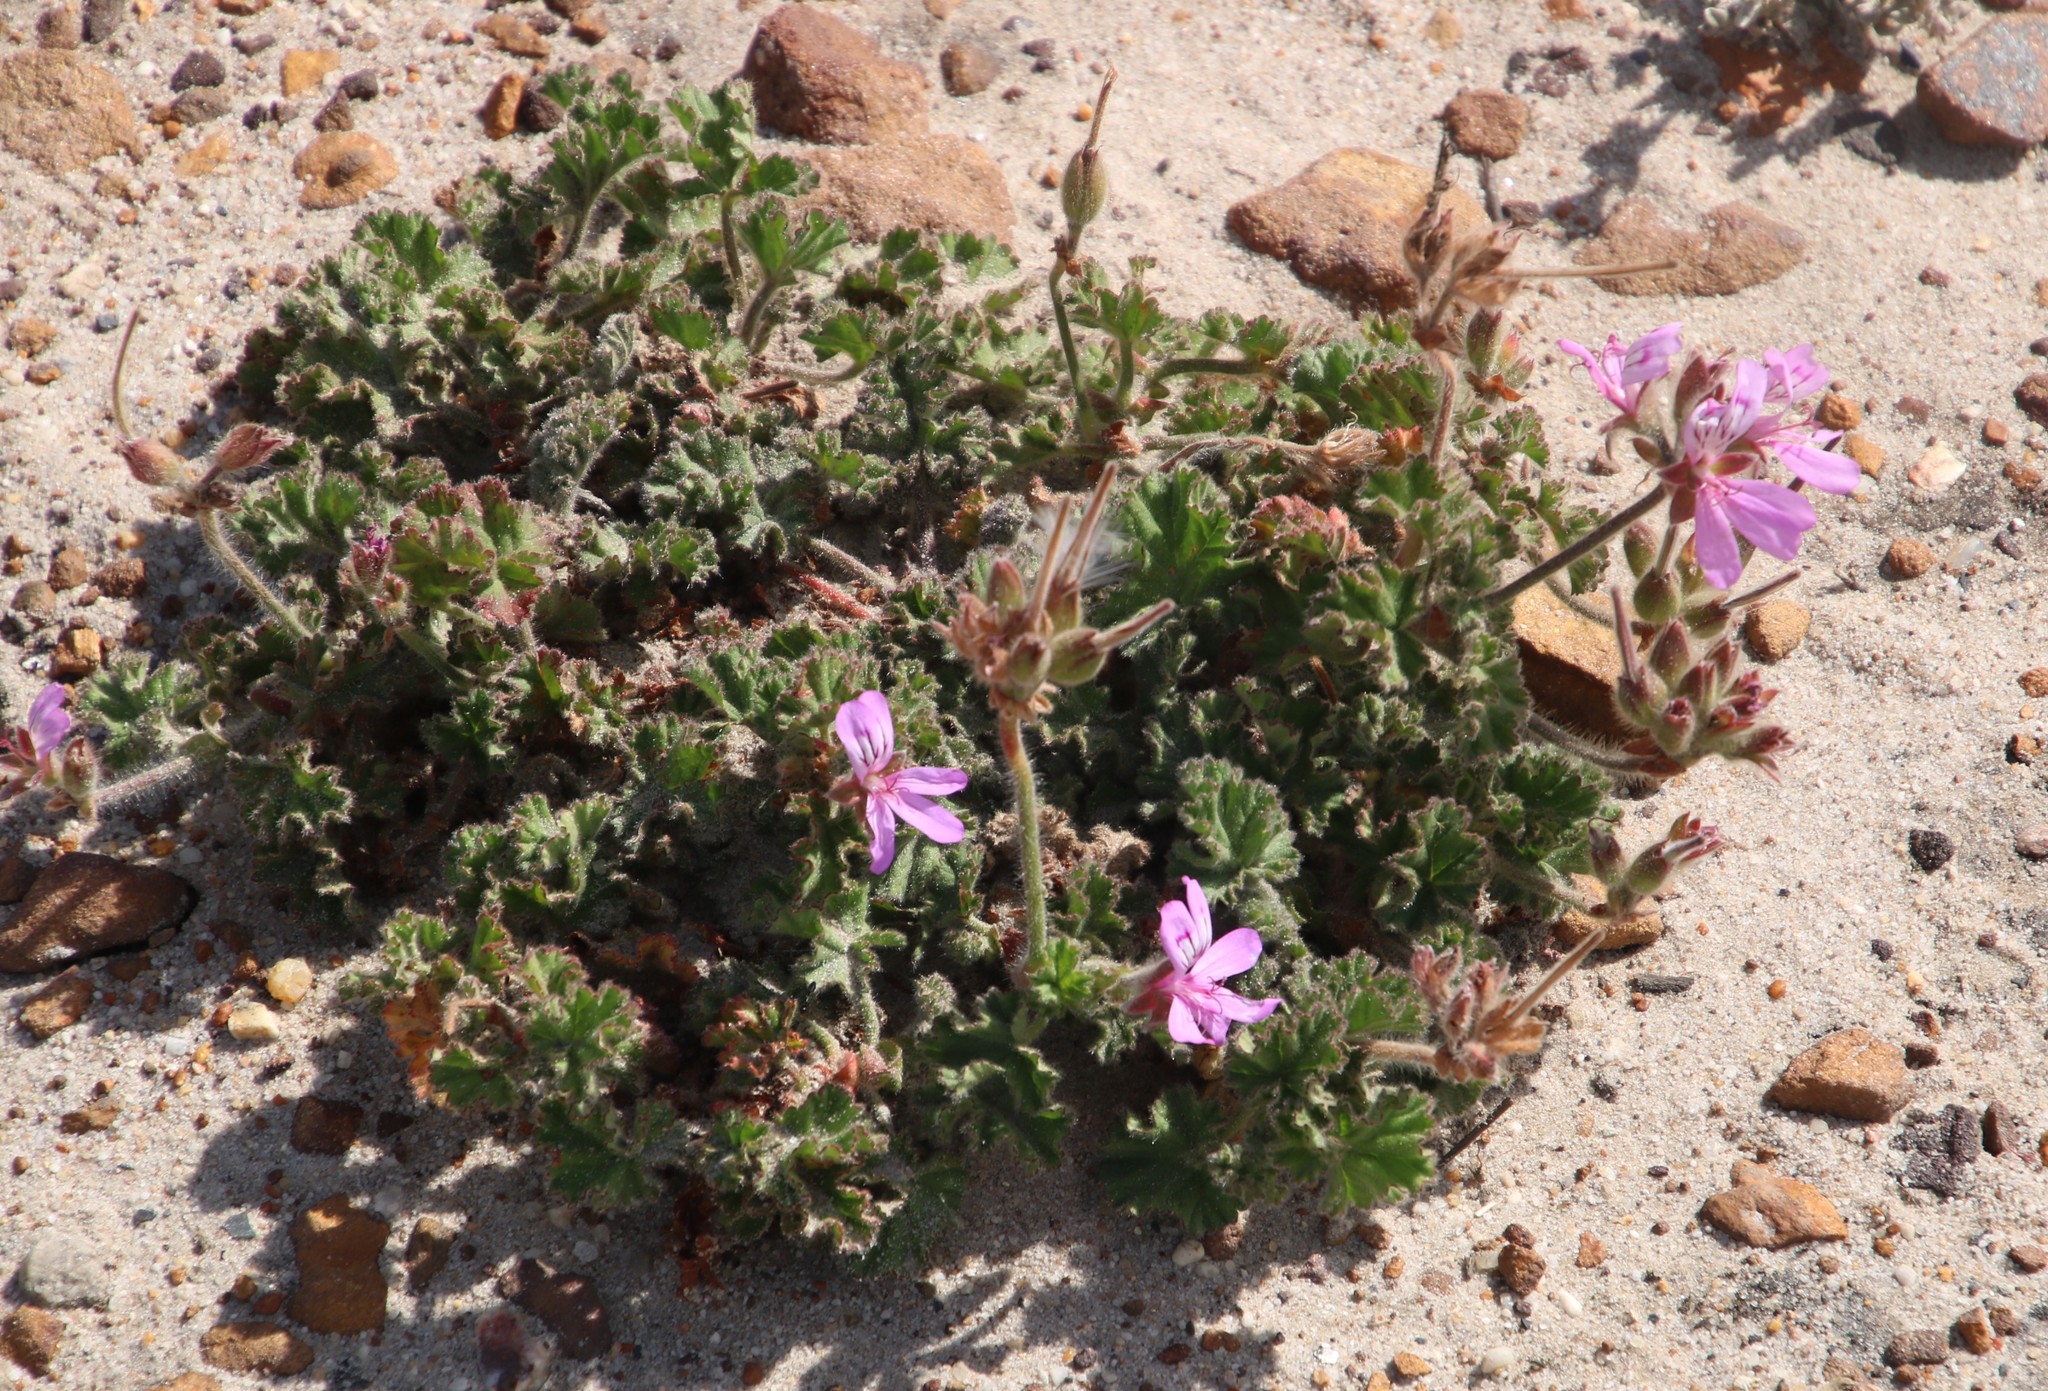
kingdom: Plantae
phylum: Tracheophyta
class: Magnoliopsida
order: Geraniales
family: Geraniaceae
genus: Pelargonium
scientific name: Pelargonium capitatum
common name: Rose scented geranium
